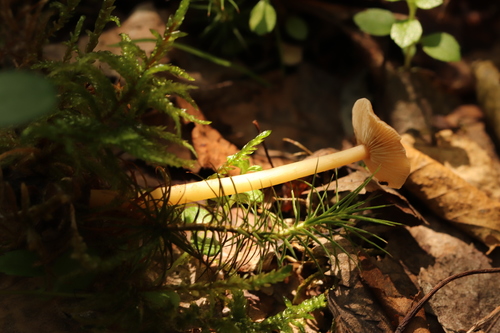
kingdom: Fungi
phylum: Basidiomycota
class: Agaricomycetes
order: Agaricales
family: Omphalotaceae
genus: Gymnopus
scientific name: Gymnopus dryophilus
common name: Penny top
